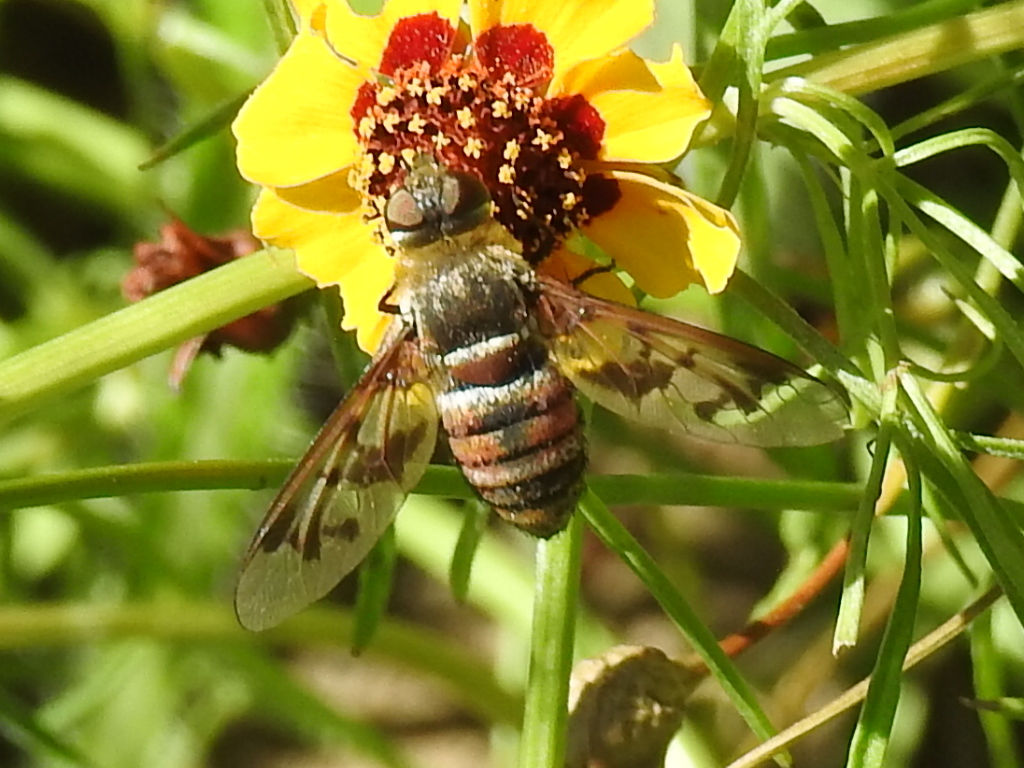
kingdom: Animalia
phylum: Arthropoda
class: Insecta
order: Diptera
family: Bombyliidae
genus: Neodiplocampta
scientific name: Neodiplocampta miranda
